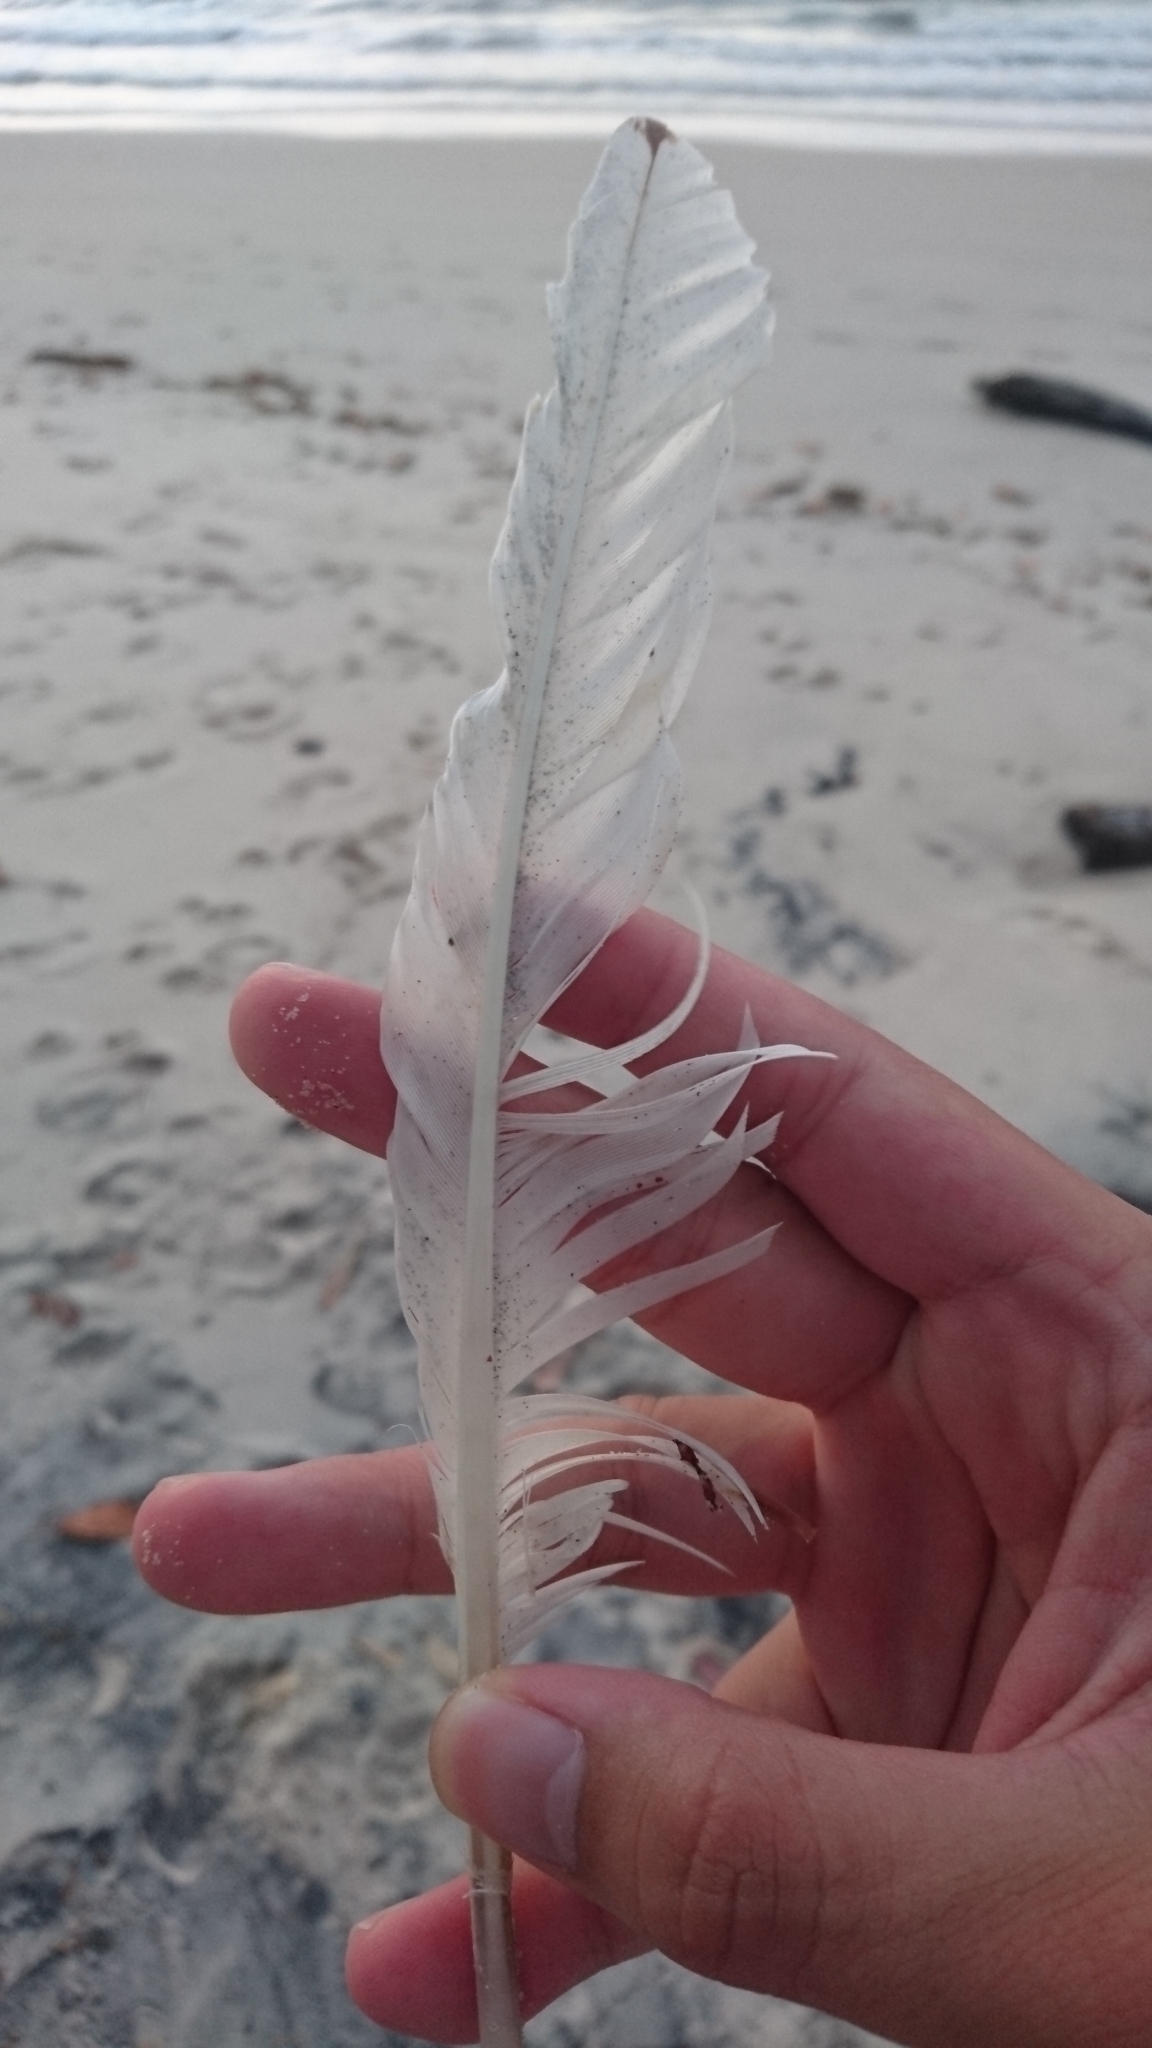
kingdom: Animalia
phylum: Chordata
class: Aves
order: Pelecaniformes
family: Threskiornithidae
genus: Threskiornis
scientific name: Threskiornis molucca
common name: Australian white ibis
